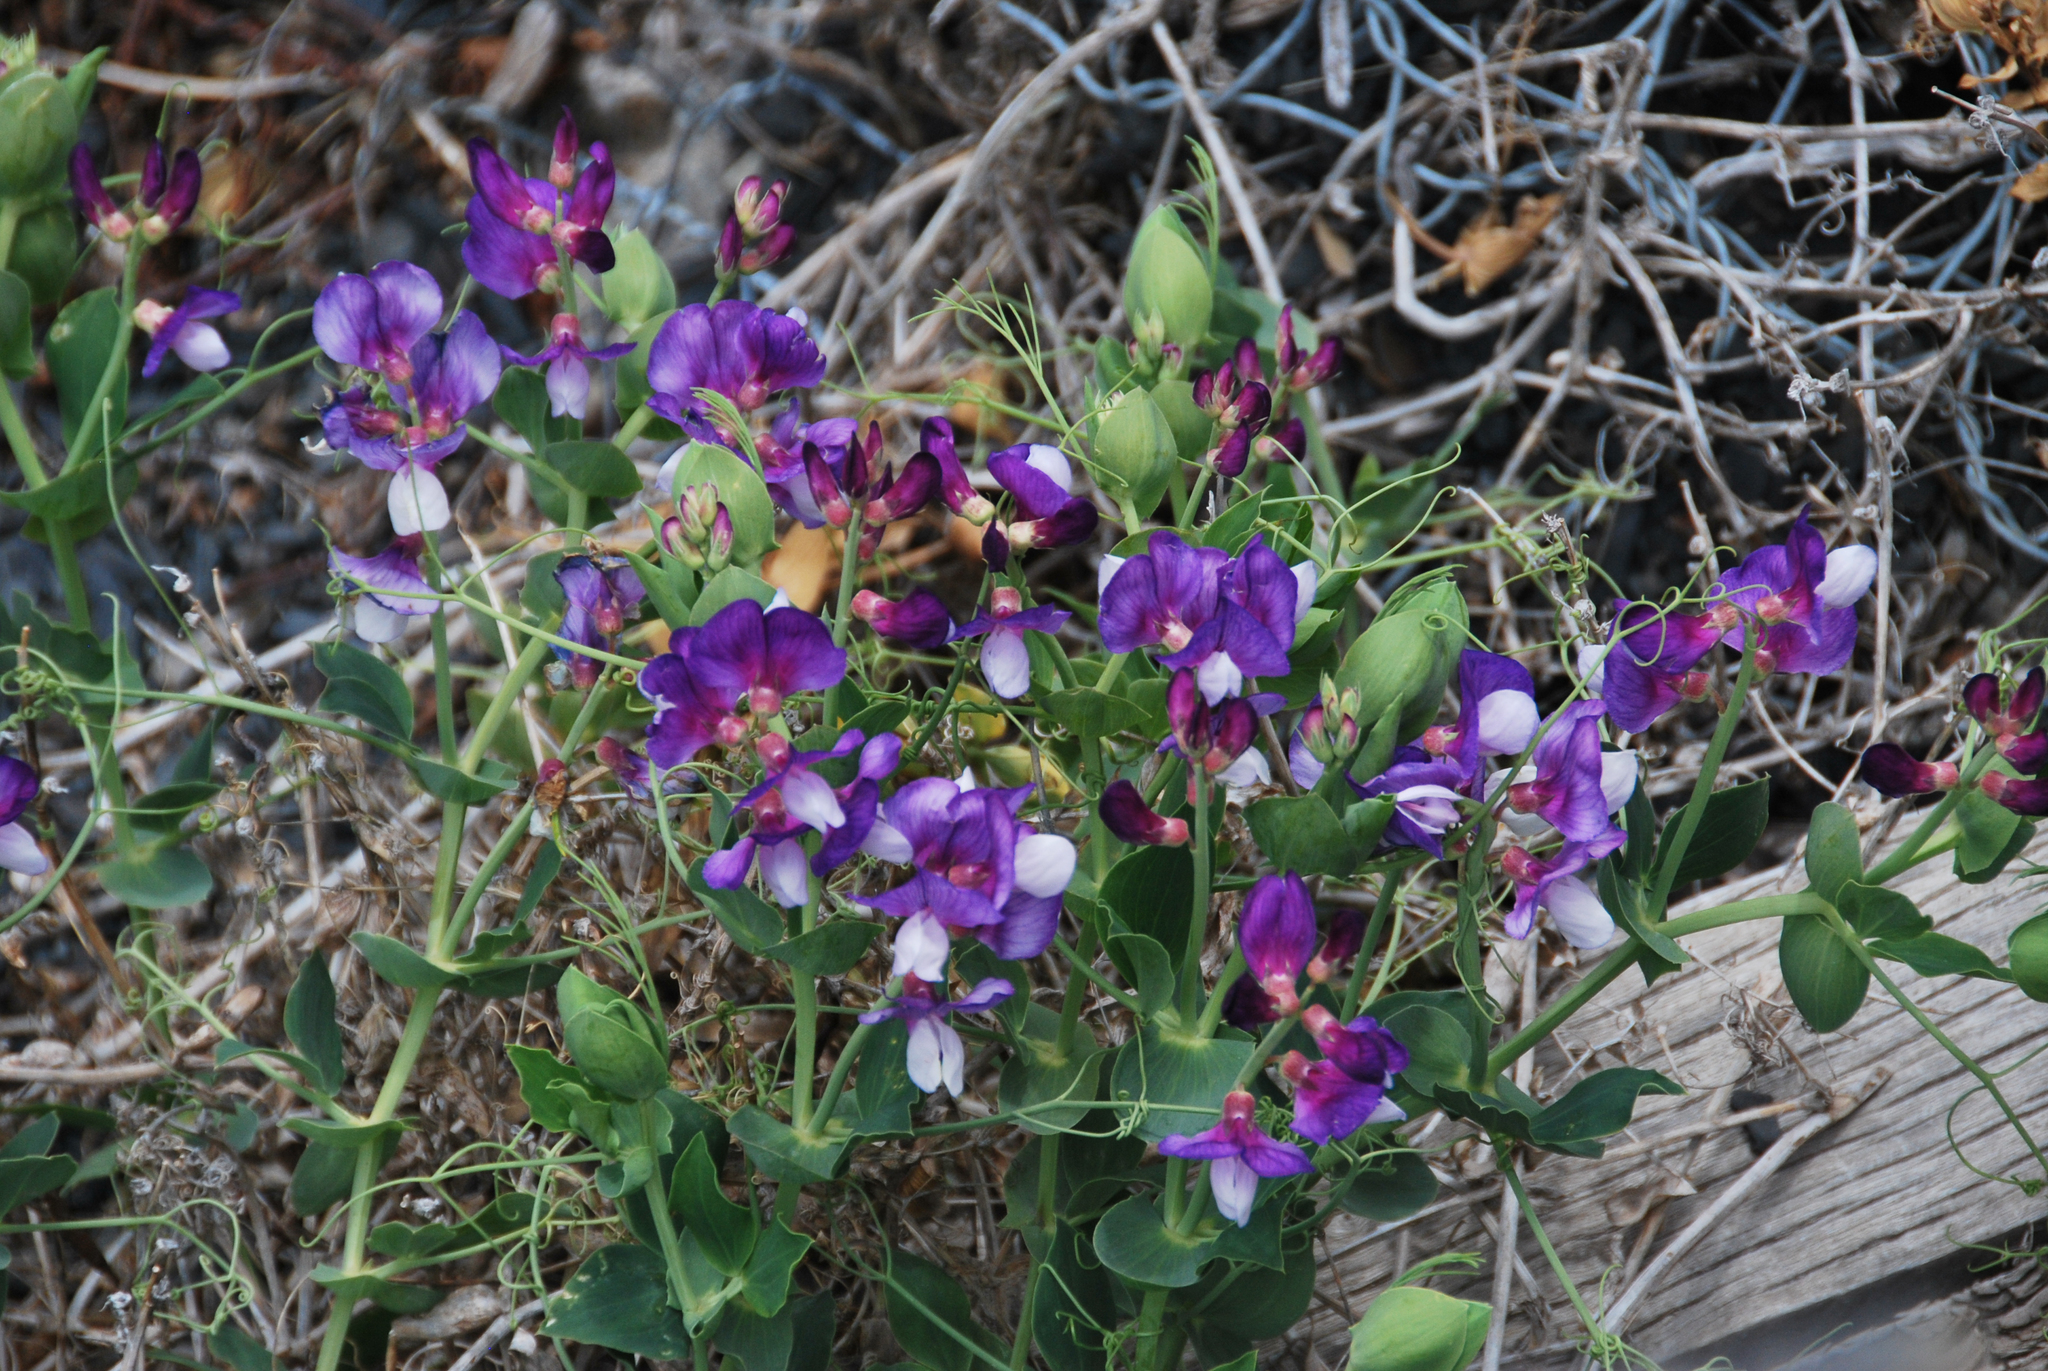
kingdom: Plantae
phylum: Tracheophyta
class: Magnoliopsida
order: Fabales
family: Fabaceae
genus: Lathyrus
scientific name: Lathyrus magellanicus
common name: Lord anson's pea
